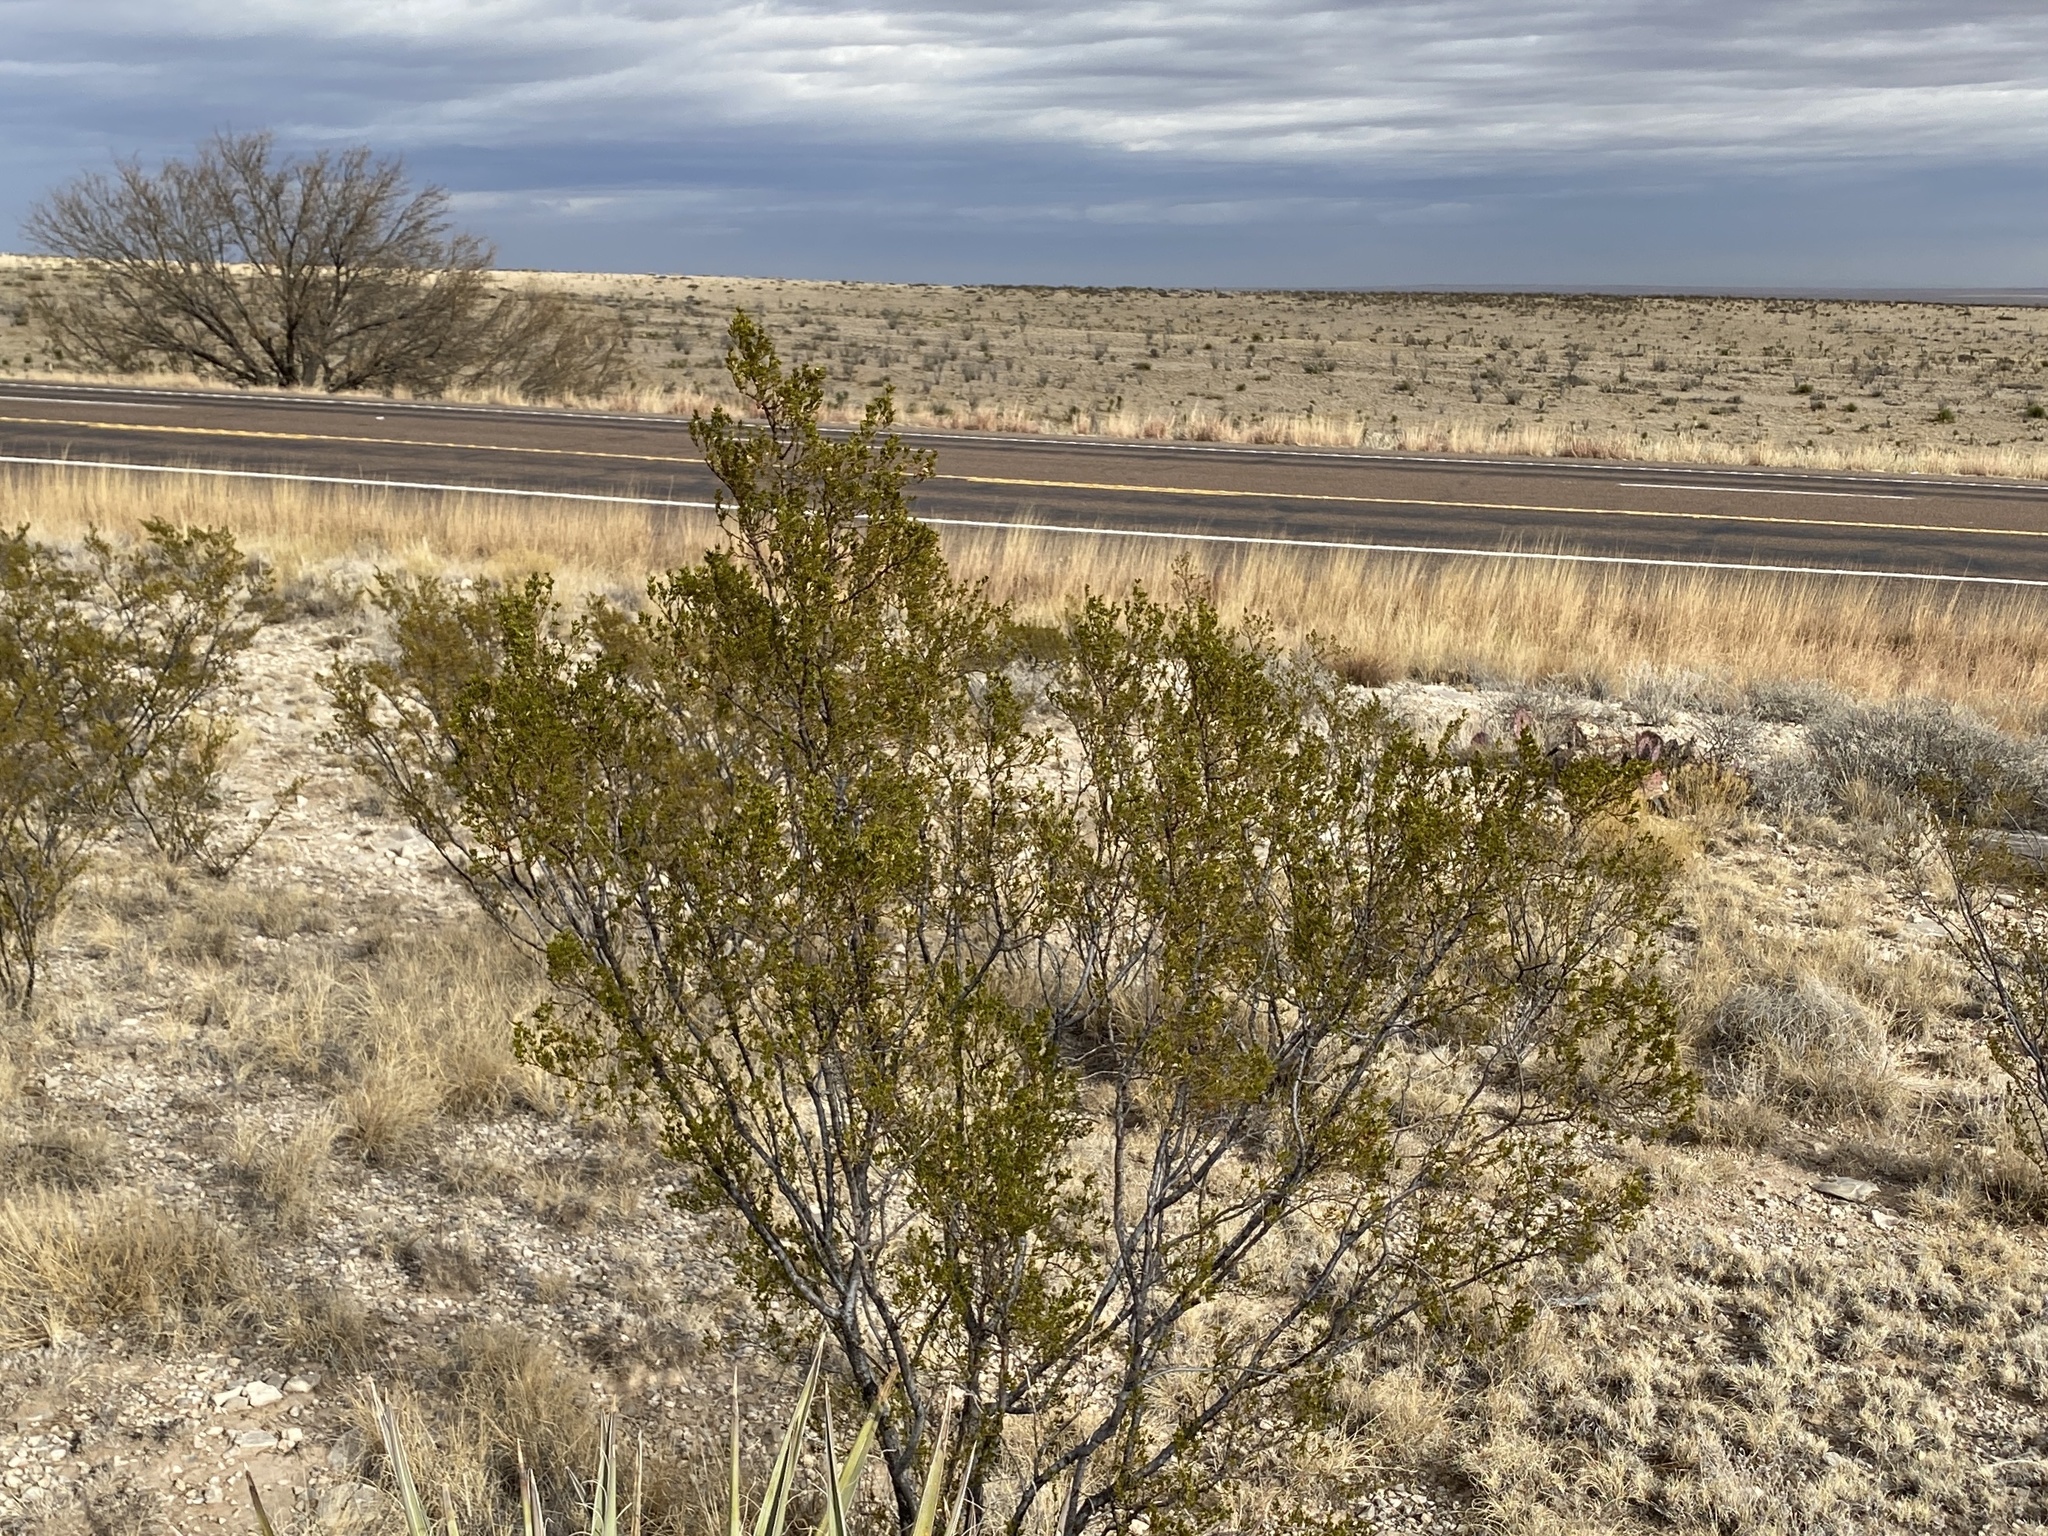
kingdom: Plantae
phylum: Tracheophyta
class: Magnoliopsida
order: Zygophyllales
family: Zygophyllaceae
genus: Larrea
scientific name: Larrea tridentata
